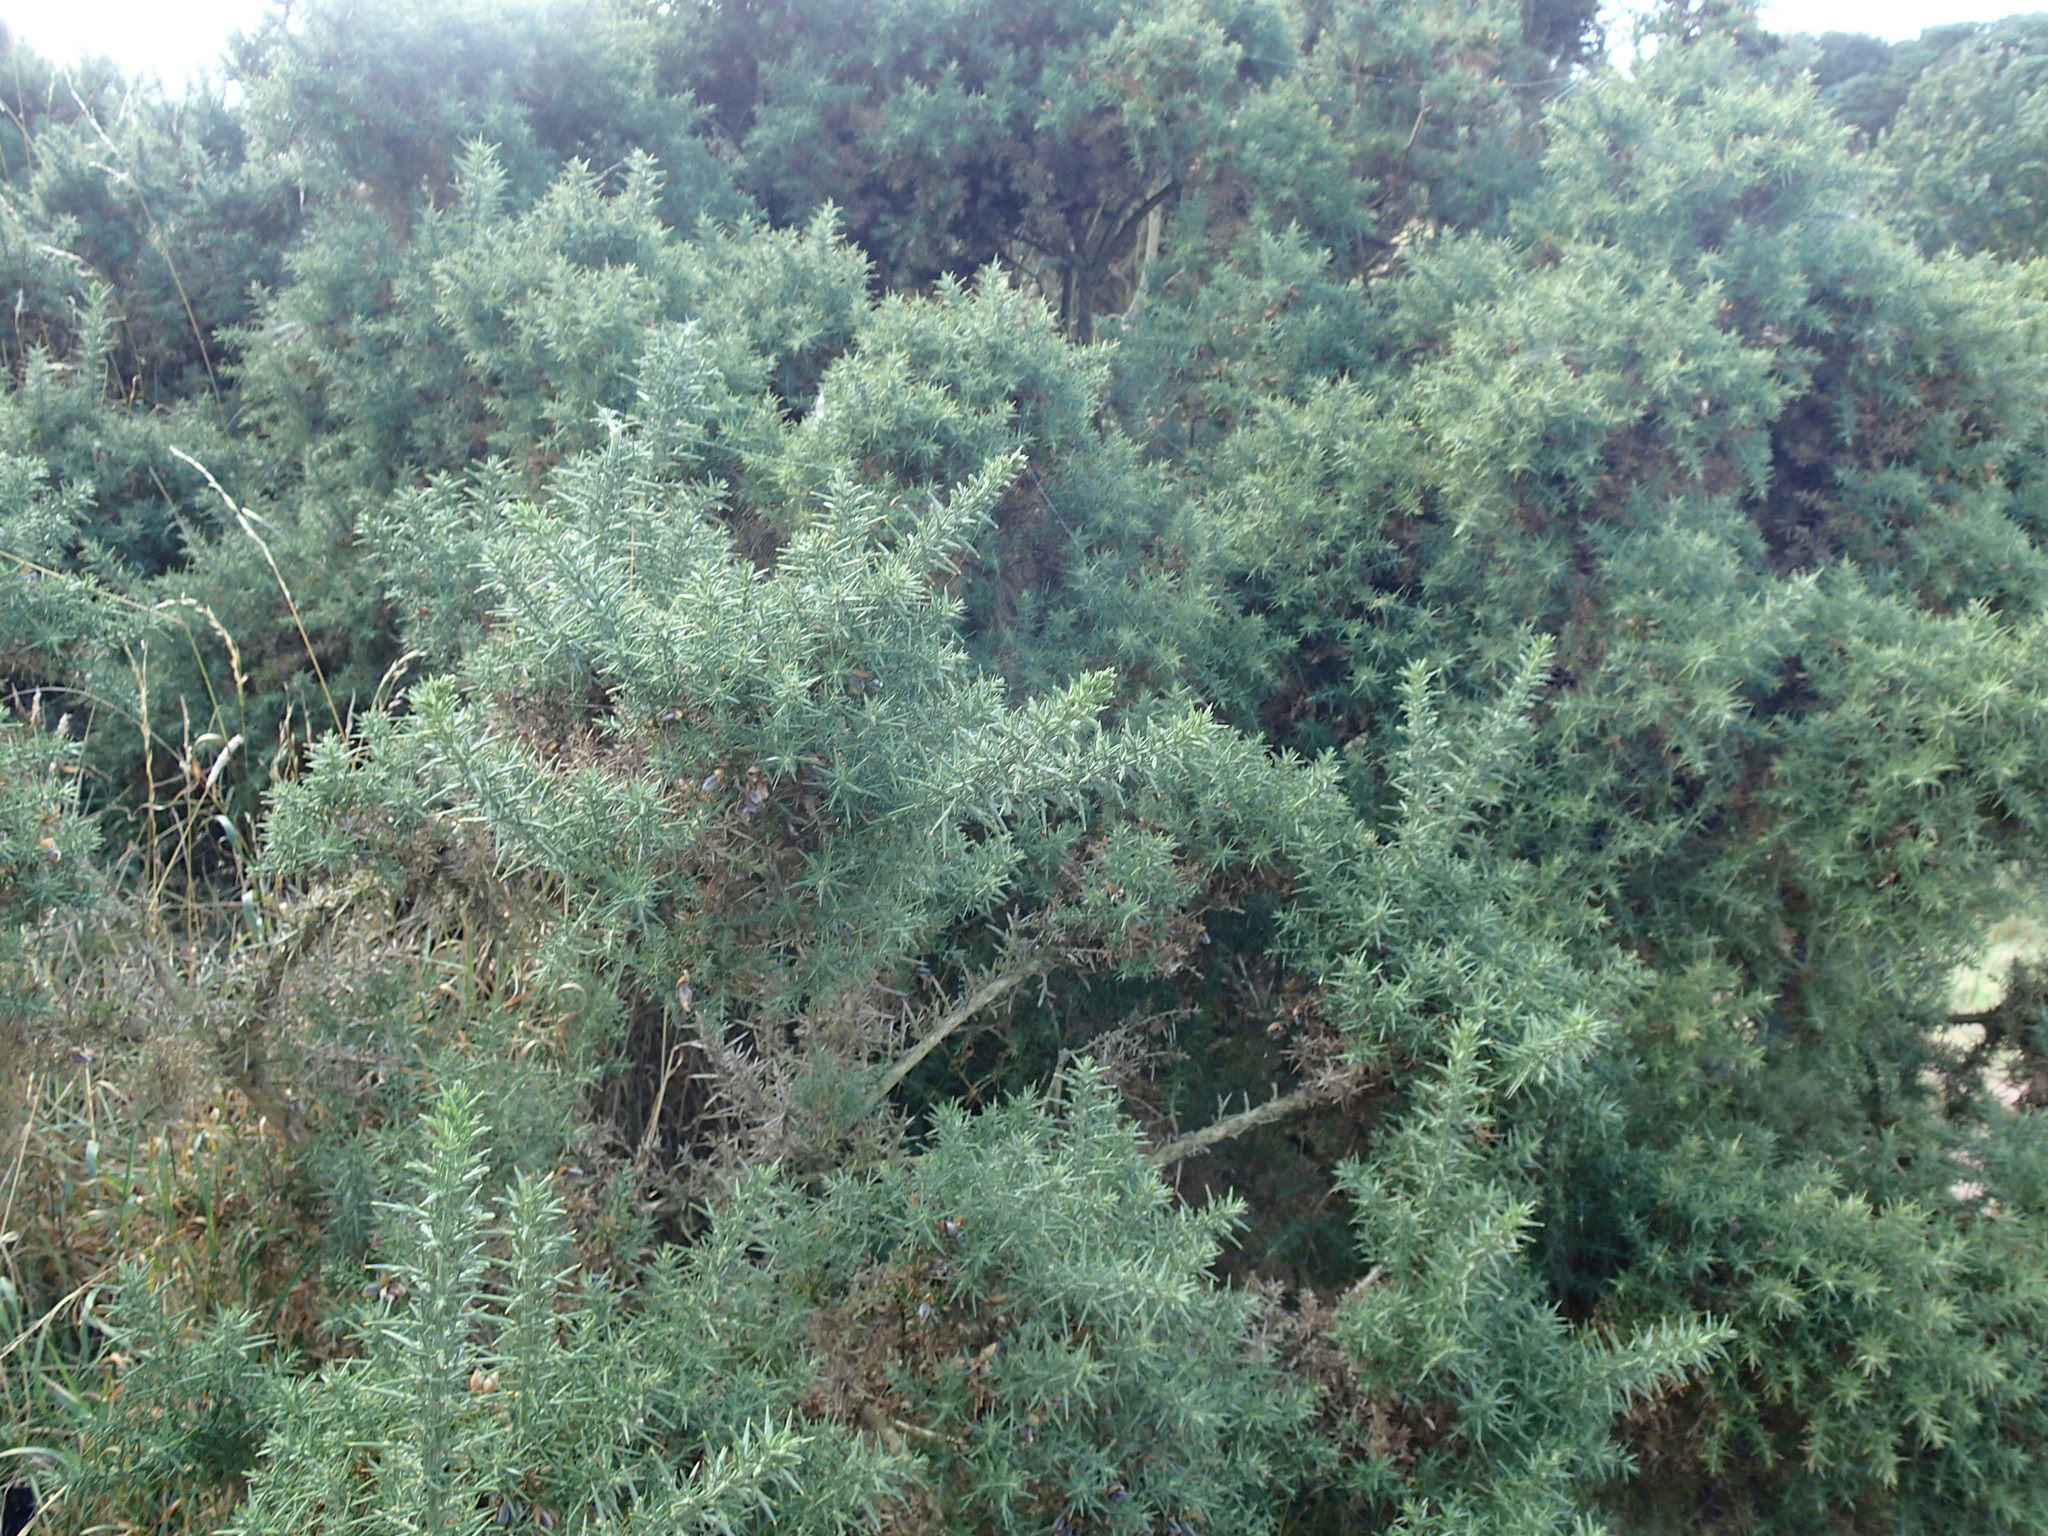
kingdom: Plantae
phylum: Tracheophyta
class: Magnoliopsida
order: Fabales
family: Fabaceae
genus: Ulex
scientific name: Ulex europaeus
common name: Common gorse
